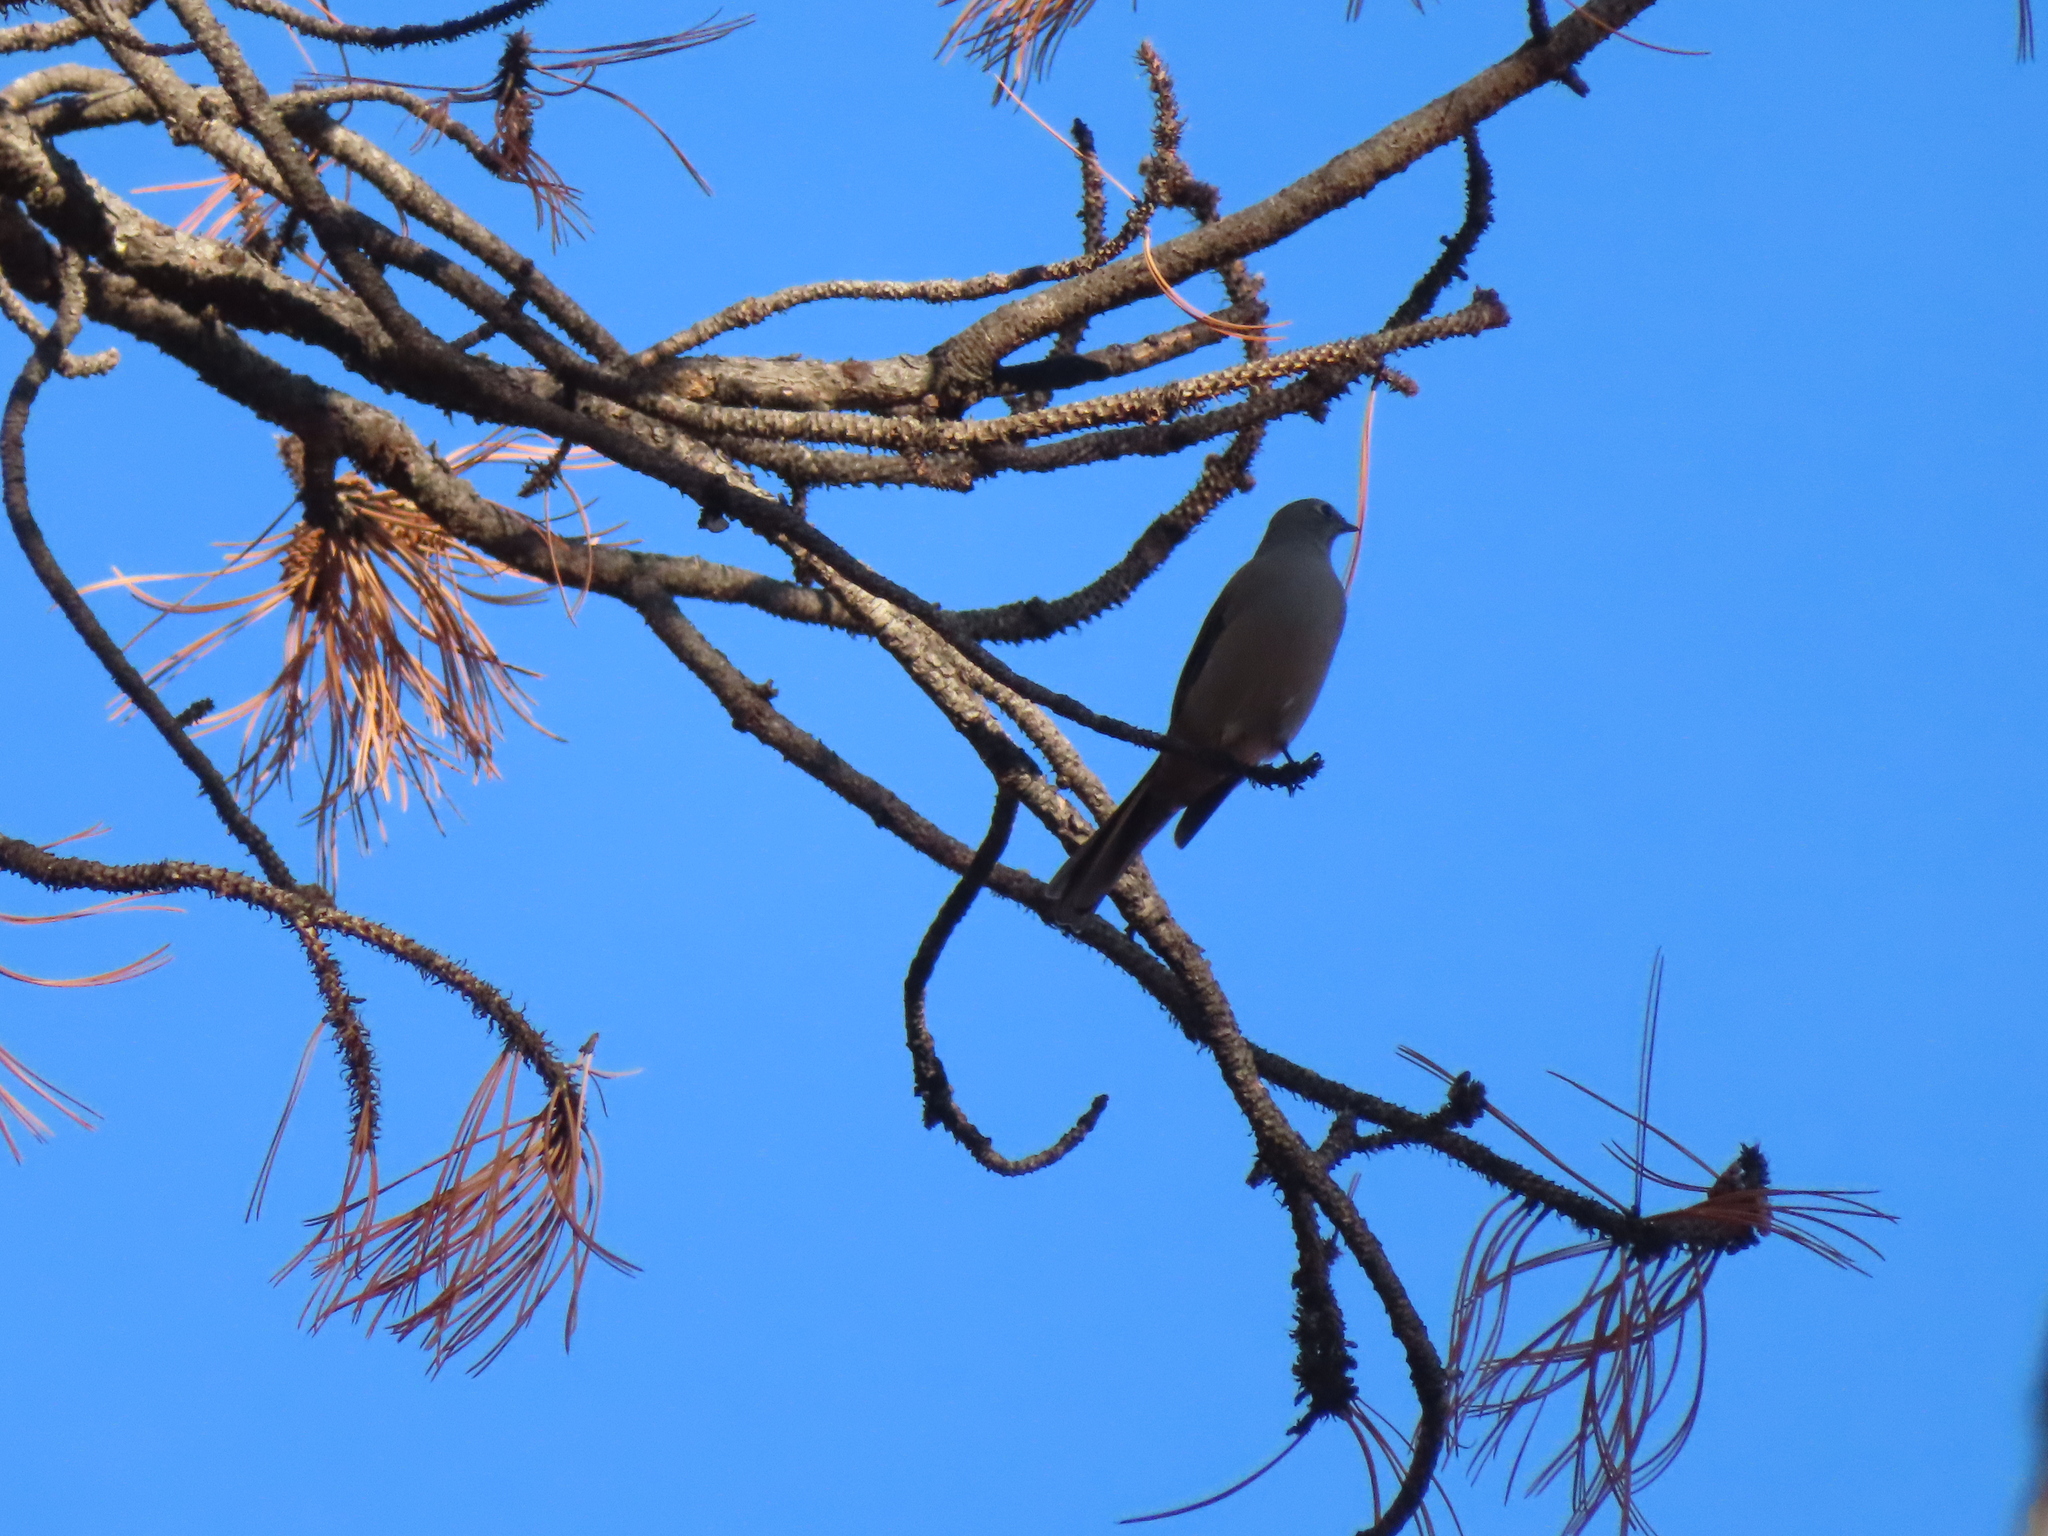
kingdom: Animalia
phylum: Chordata
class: Aves
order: Passeriformes
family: Turdidae
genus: Myadestes
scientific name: Myadestes townsendi
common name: Townsend's solitaire
